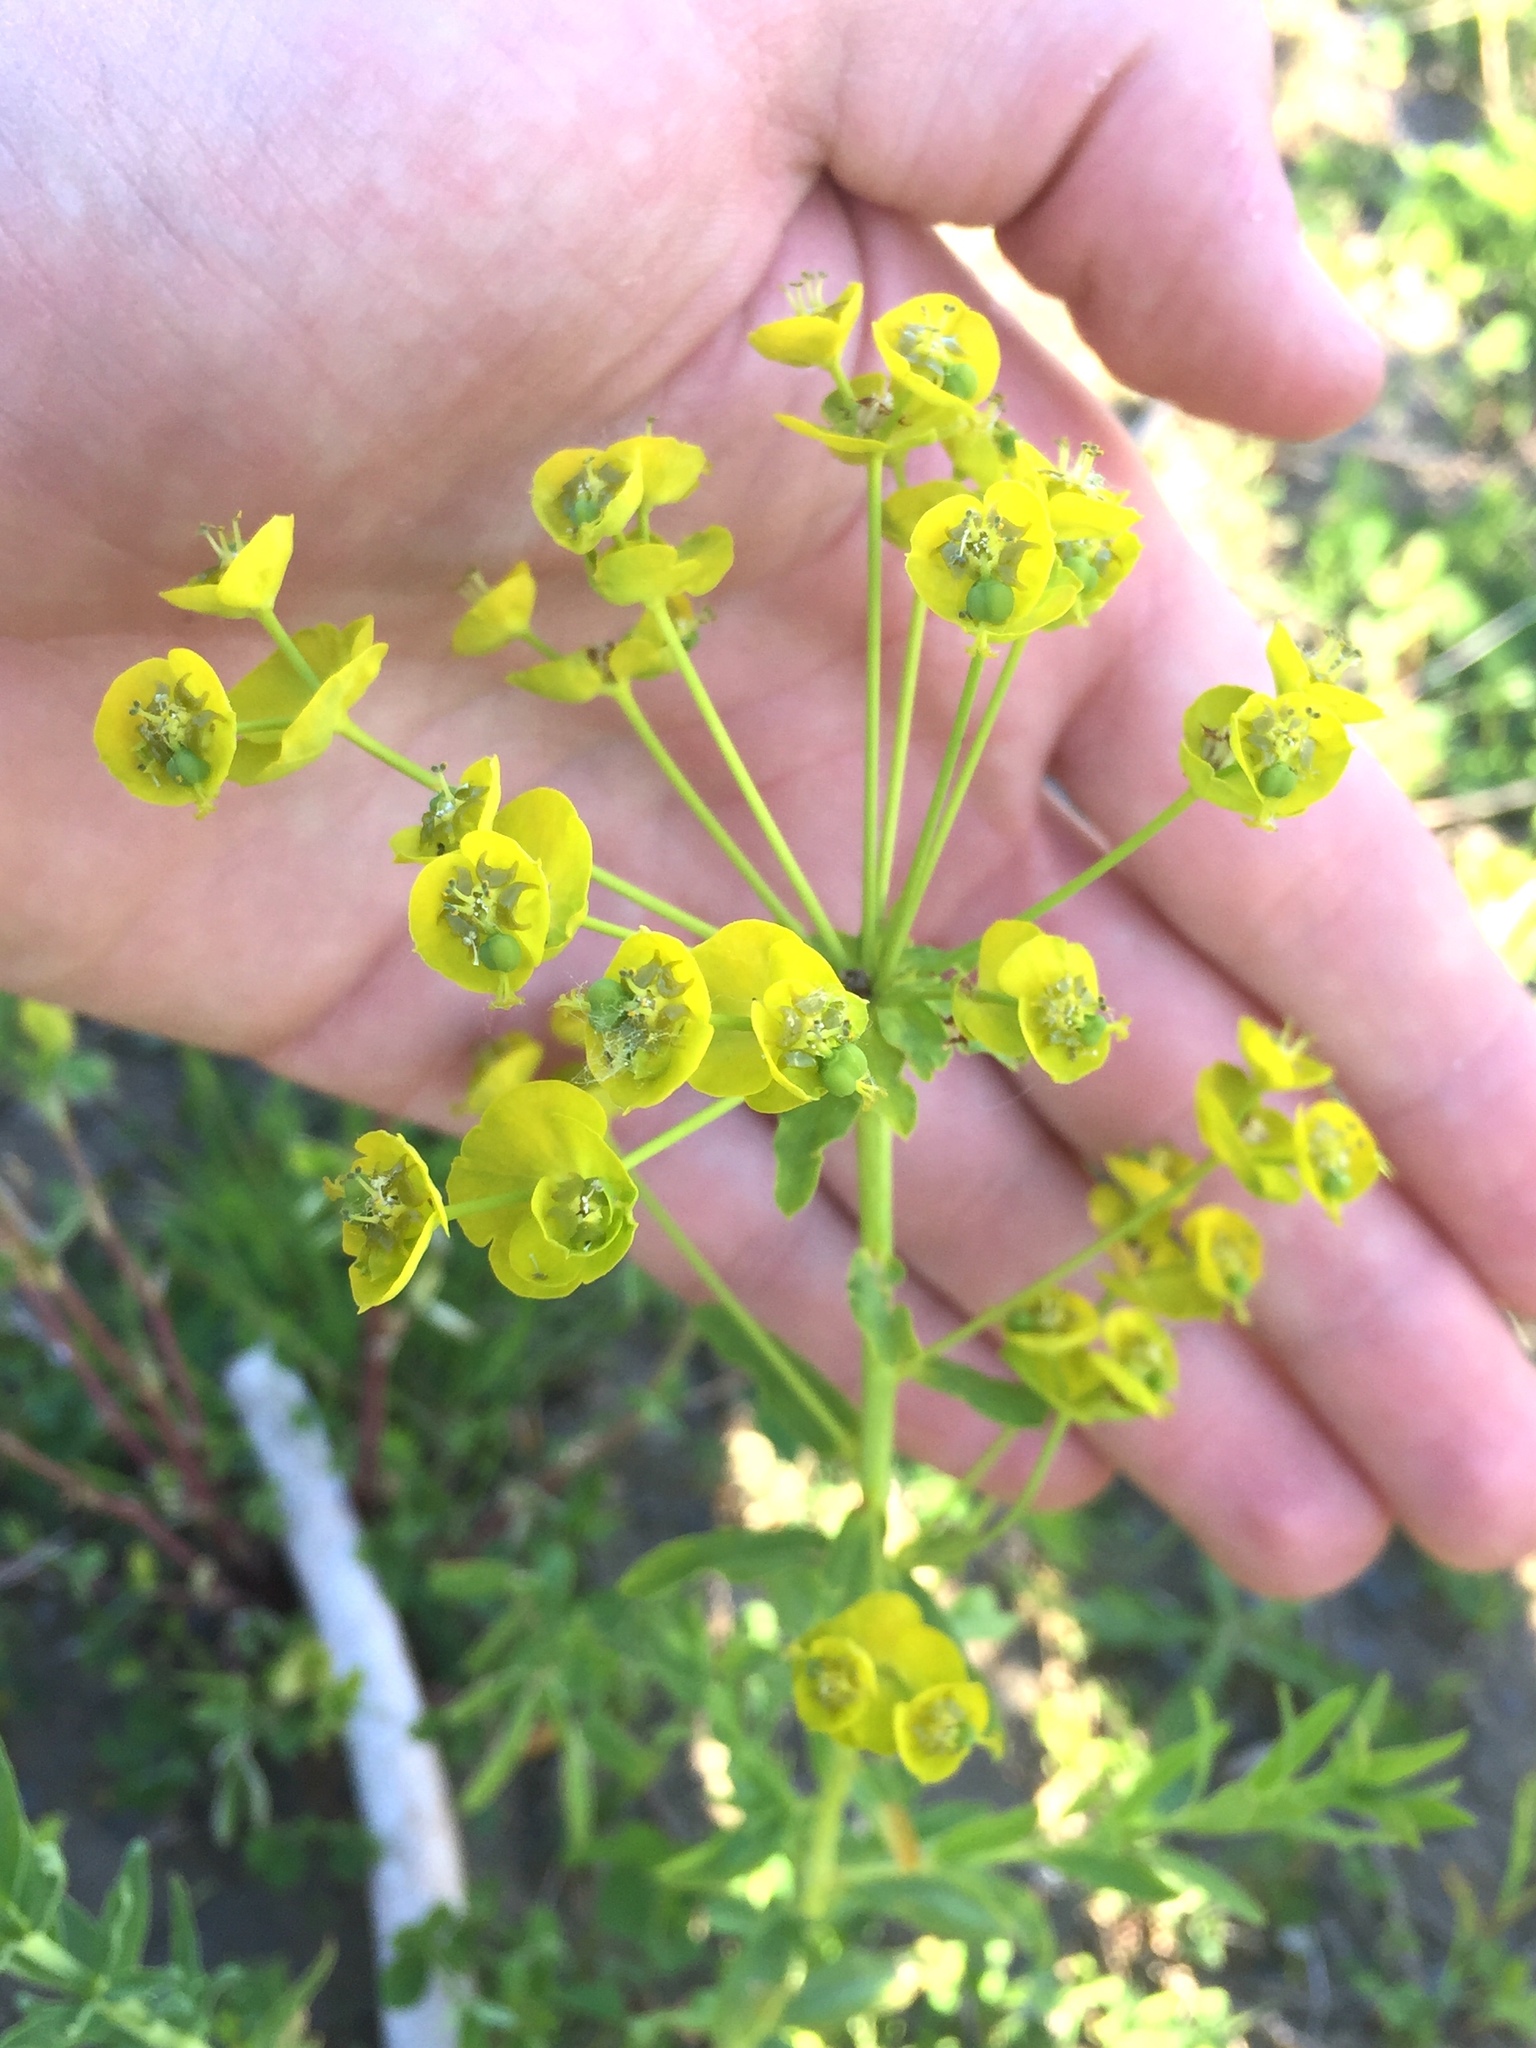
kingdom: Plantae
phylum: Tracheophyta
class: Magnoliopsida
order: Malpighiales
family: Euphorbiaceae
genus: Euphorbia
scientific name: Euphorbia virgata
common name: Leafy spurge
